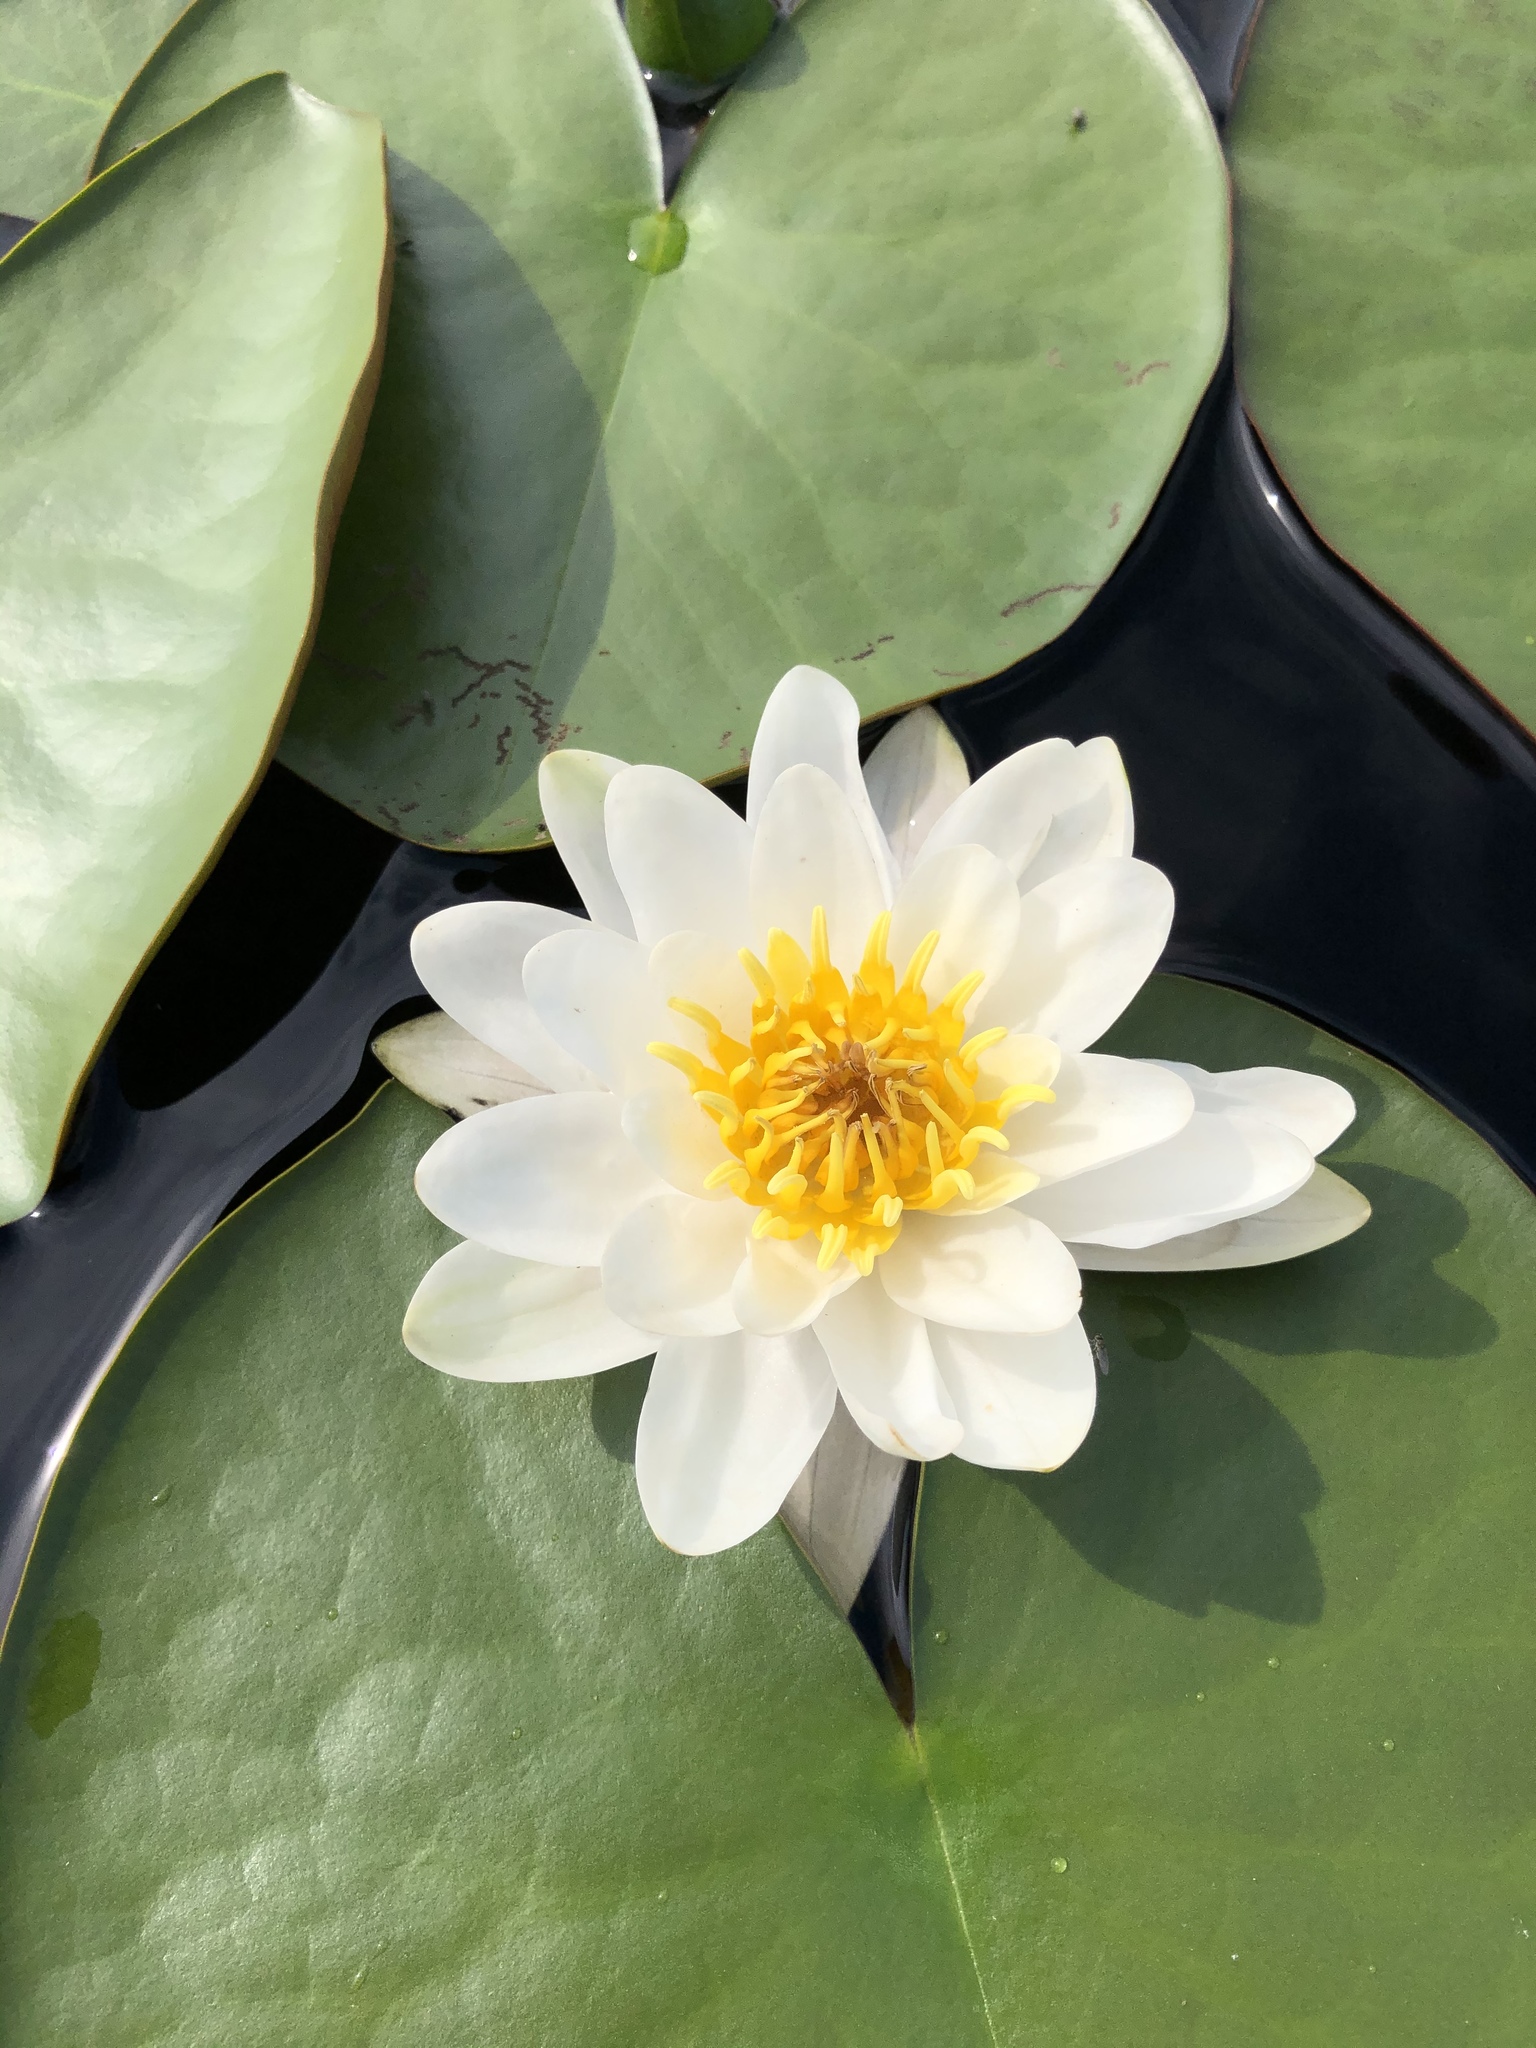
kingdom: Plantae
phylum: Tracheophyta
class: Magnoliopsida
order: Nymphaeales
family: Nymphaeaceae
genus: Nymphaea
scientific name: Nymphaea candida
